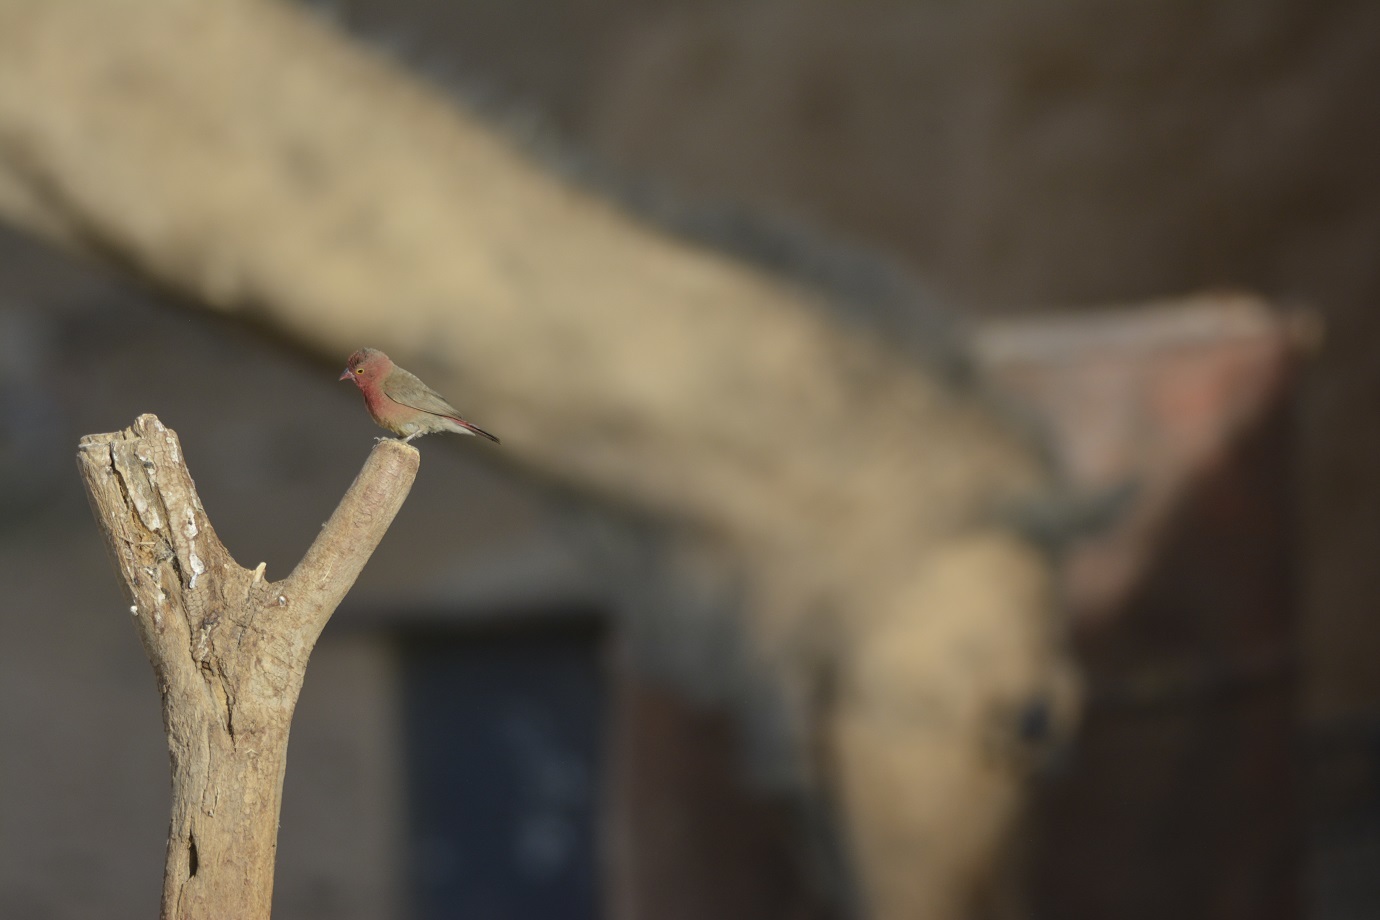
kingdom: Animalia
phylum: Chordata
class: Aves
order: Passeriformes
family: Estrildidae
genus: Lagonosticta
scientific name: Lagonosticta senegala
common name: Red-billed firefinch
